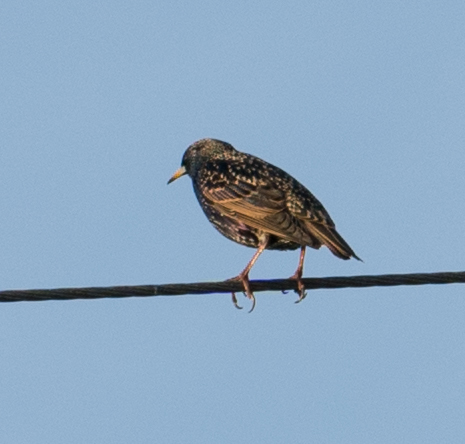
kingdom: Animalia
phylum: Chordata
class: Aves
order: Passeriformes
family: Sturnidae
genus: Sturnus
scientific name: Sturnus vulgaris
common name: Common starling
